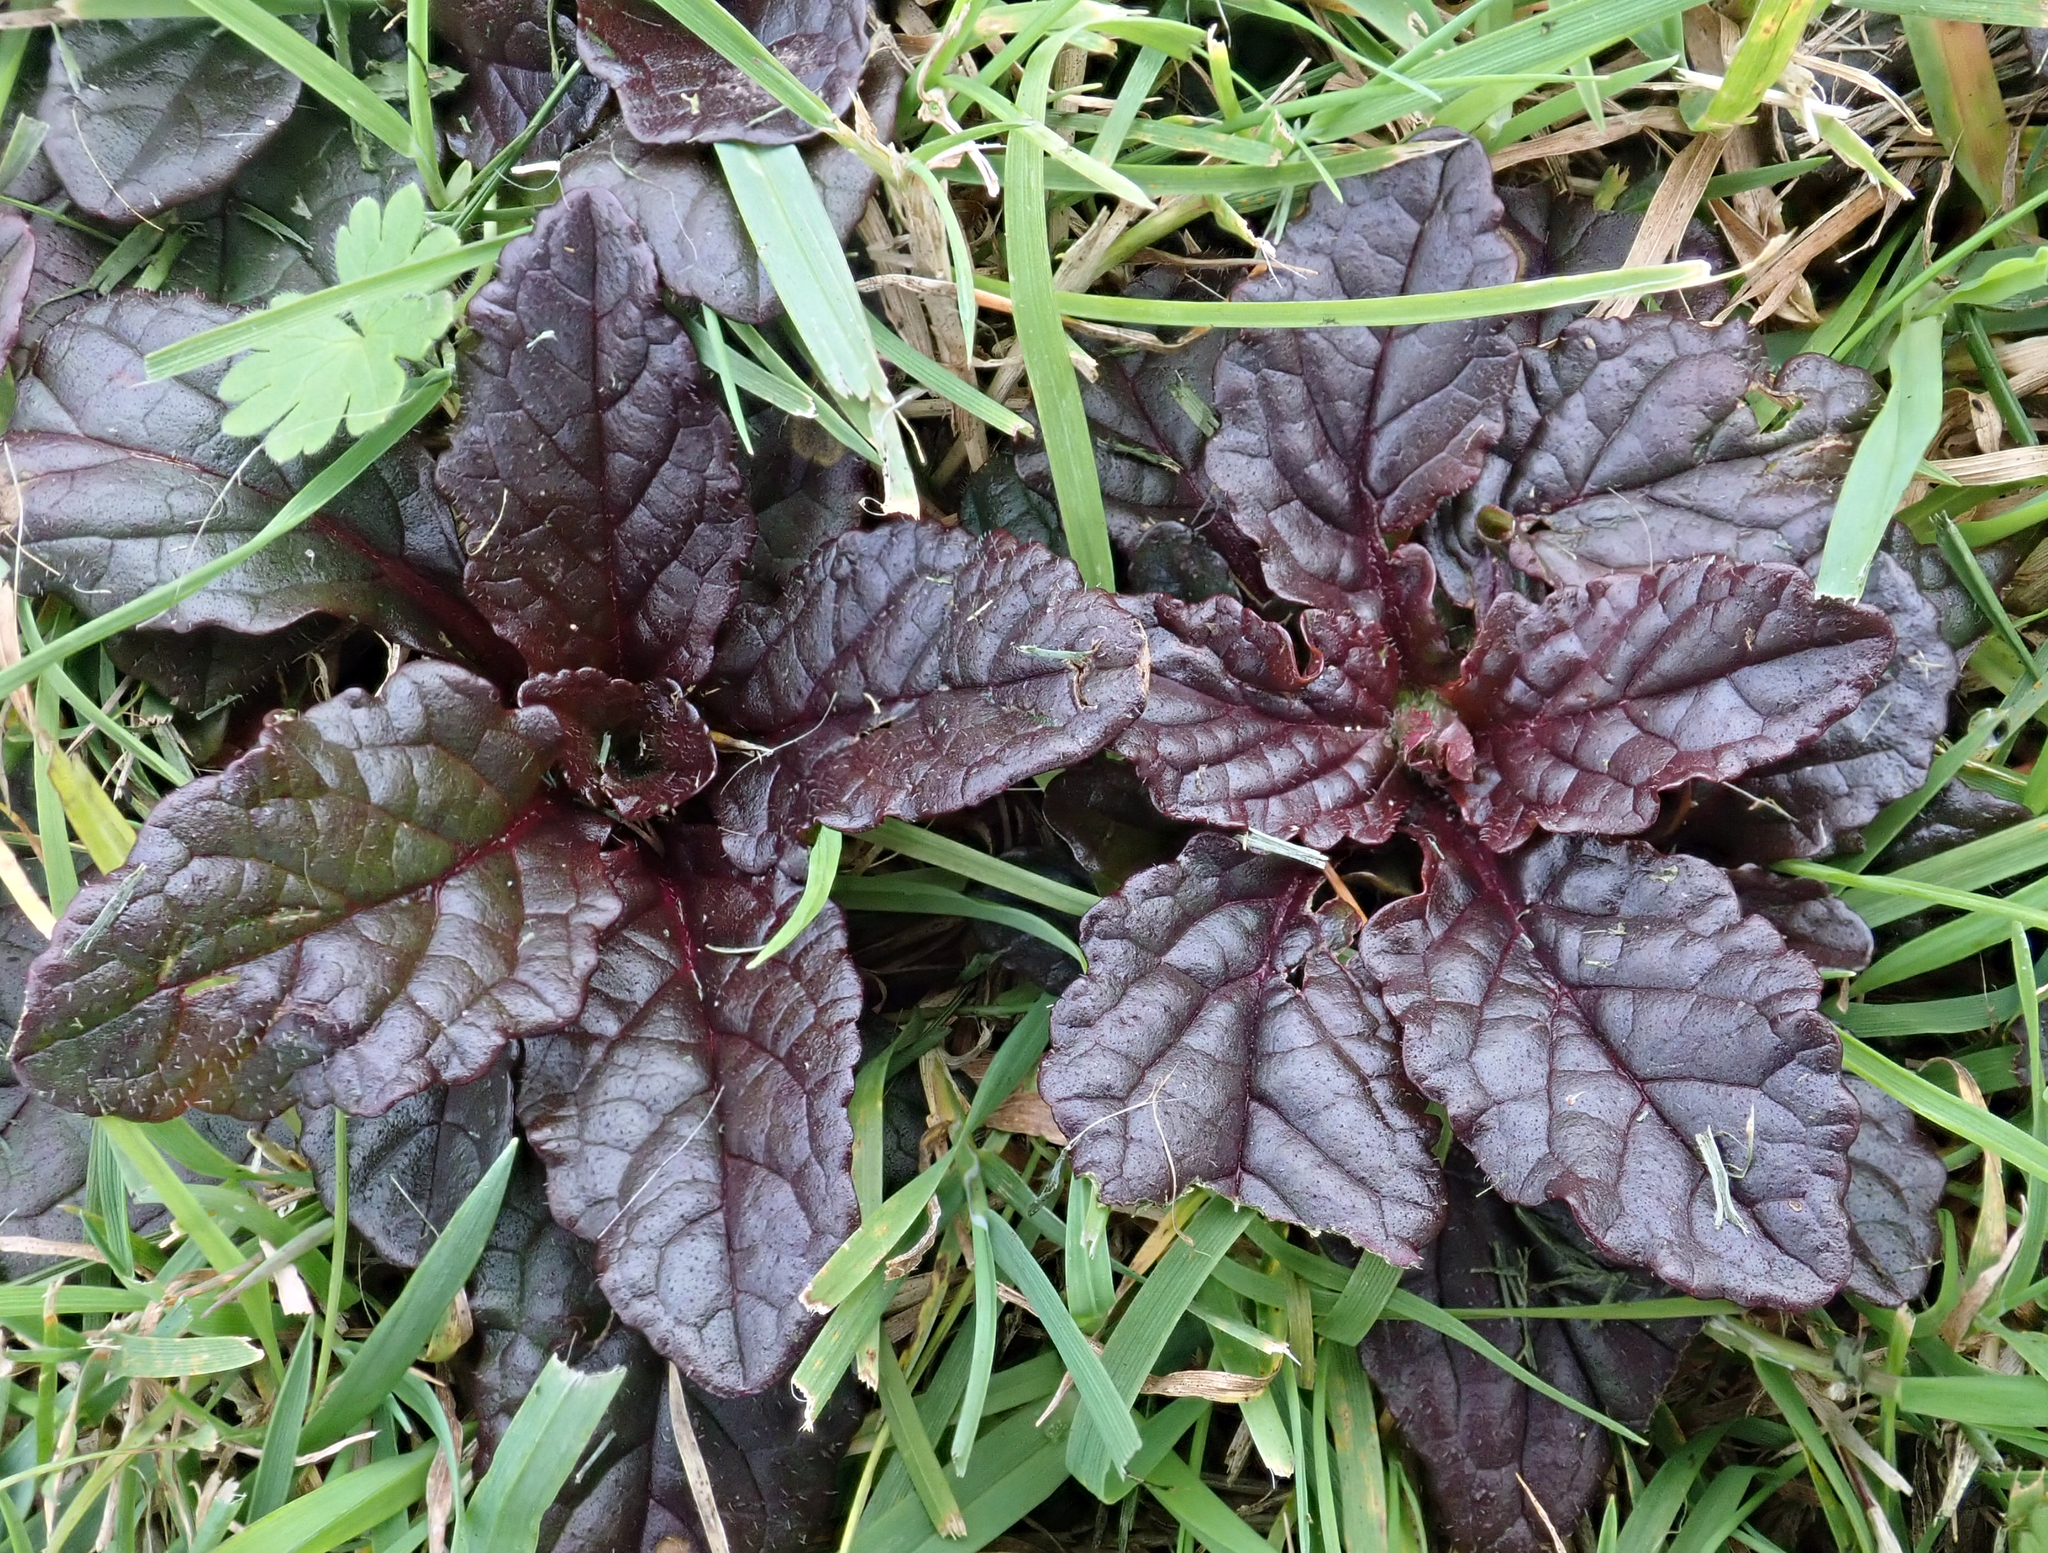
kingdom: Plantae
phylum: Tracheophyta
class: Magnoliopsida
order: Lamiales
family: Lamiaceae
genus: Ajuga
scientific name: Ajuga reptans
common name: Bugle
